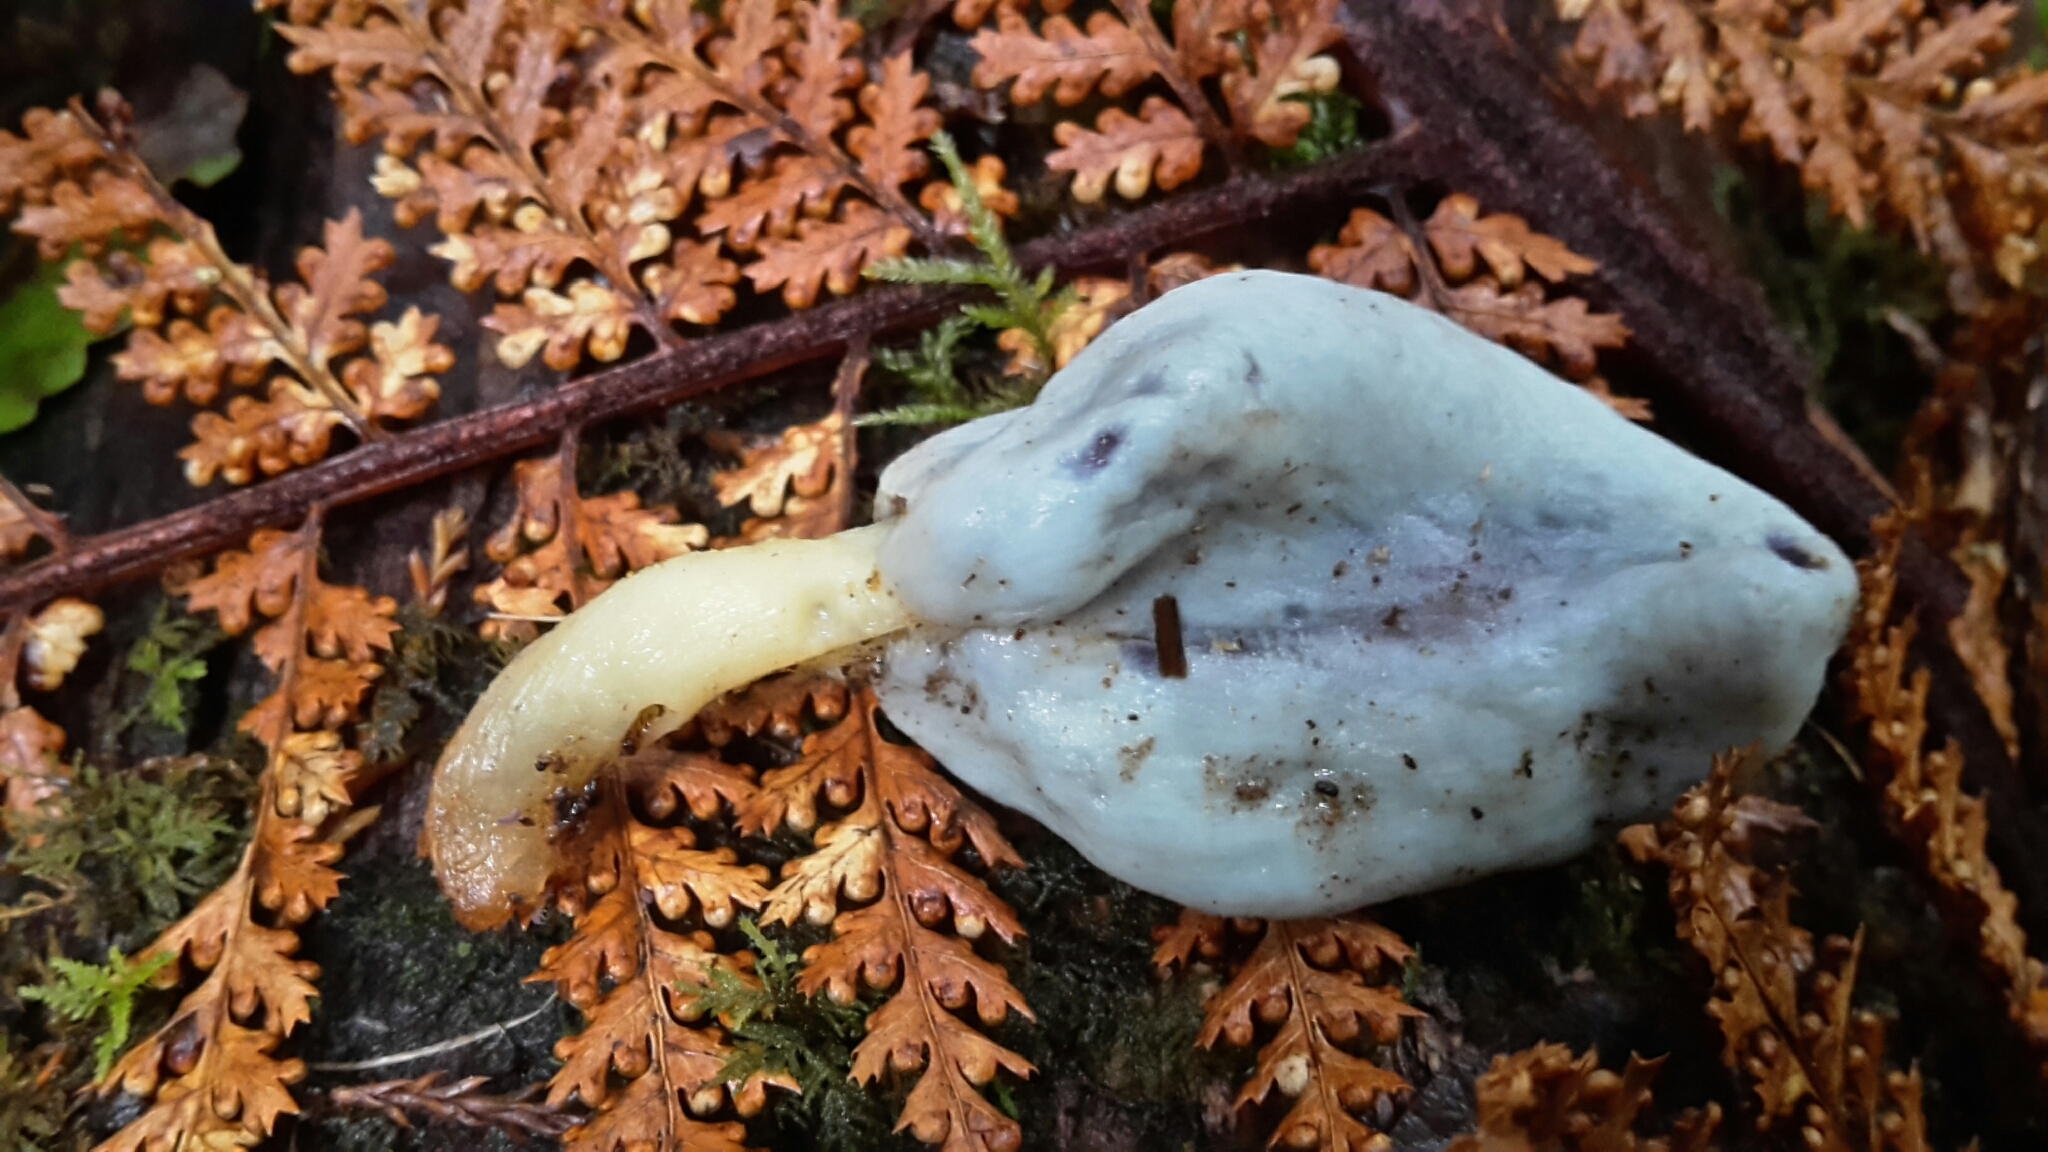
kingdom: Fungi
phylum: Basidiomycota
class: Agaricomycetes
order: Agaricales
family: Agaricaceae
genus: Clavogaster
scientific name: Clavogaster virescens
